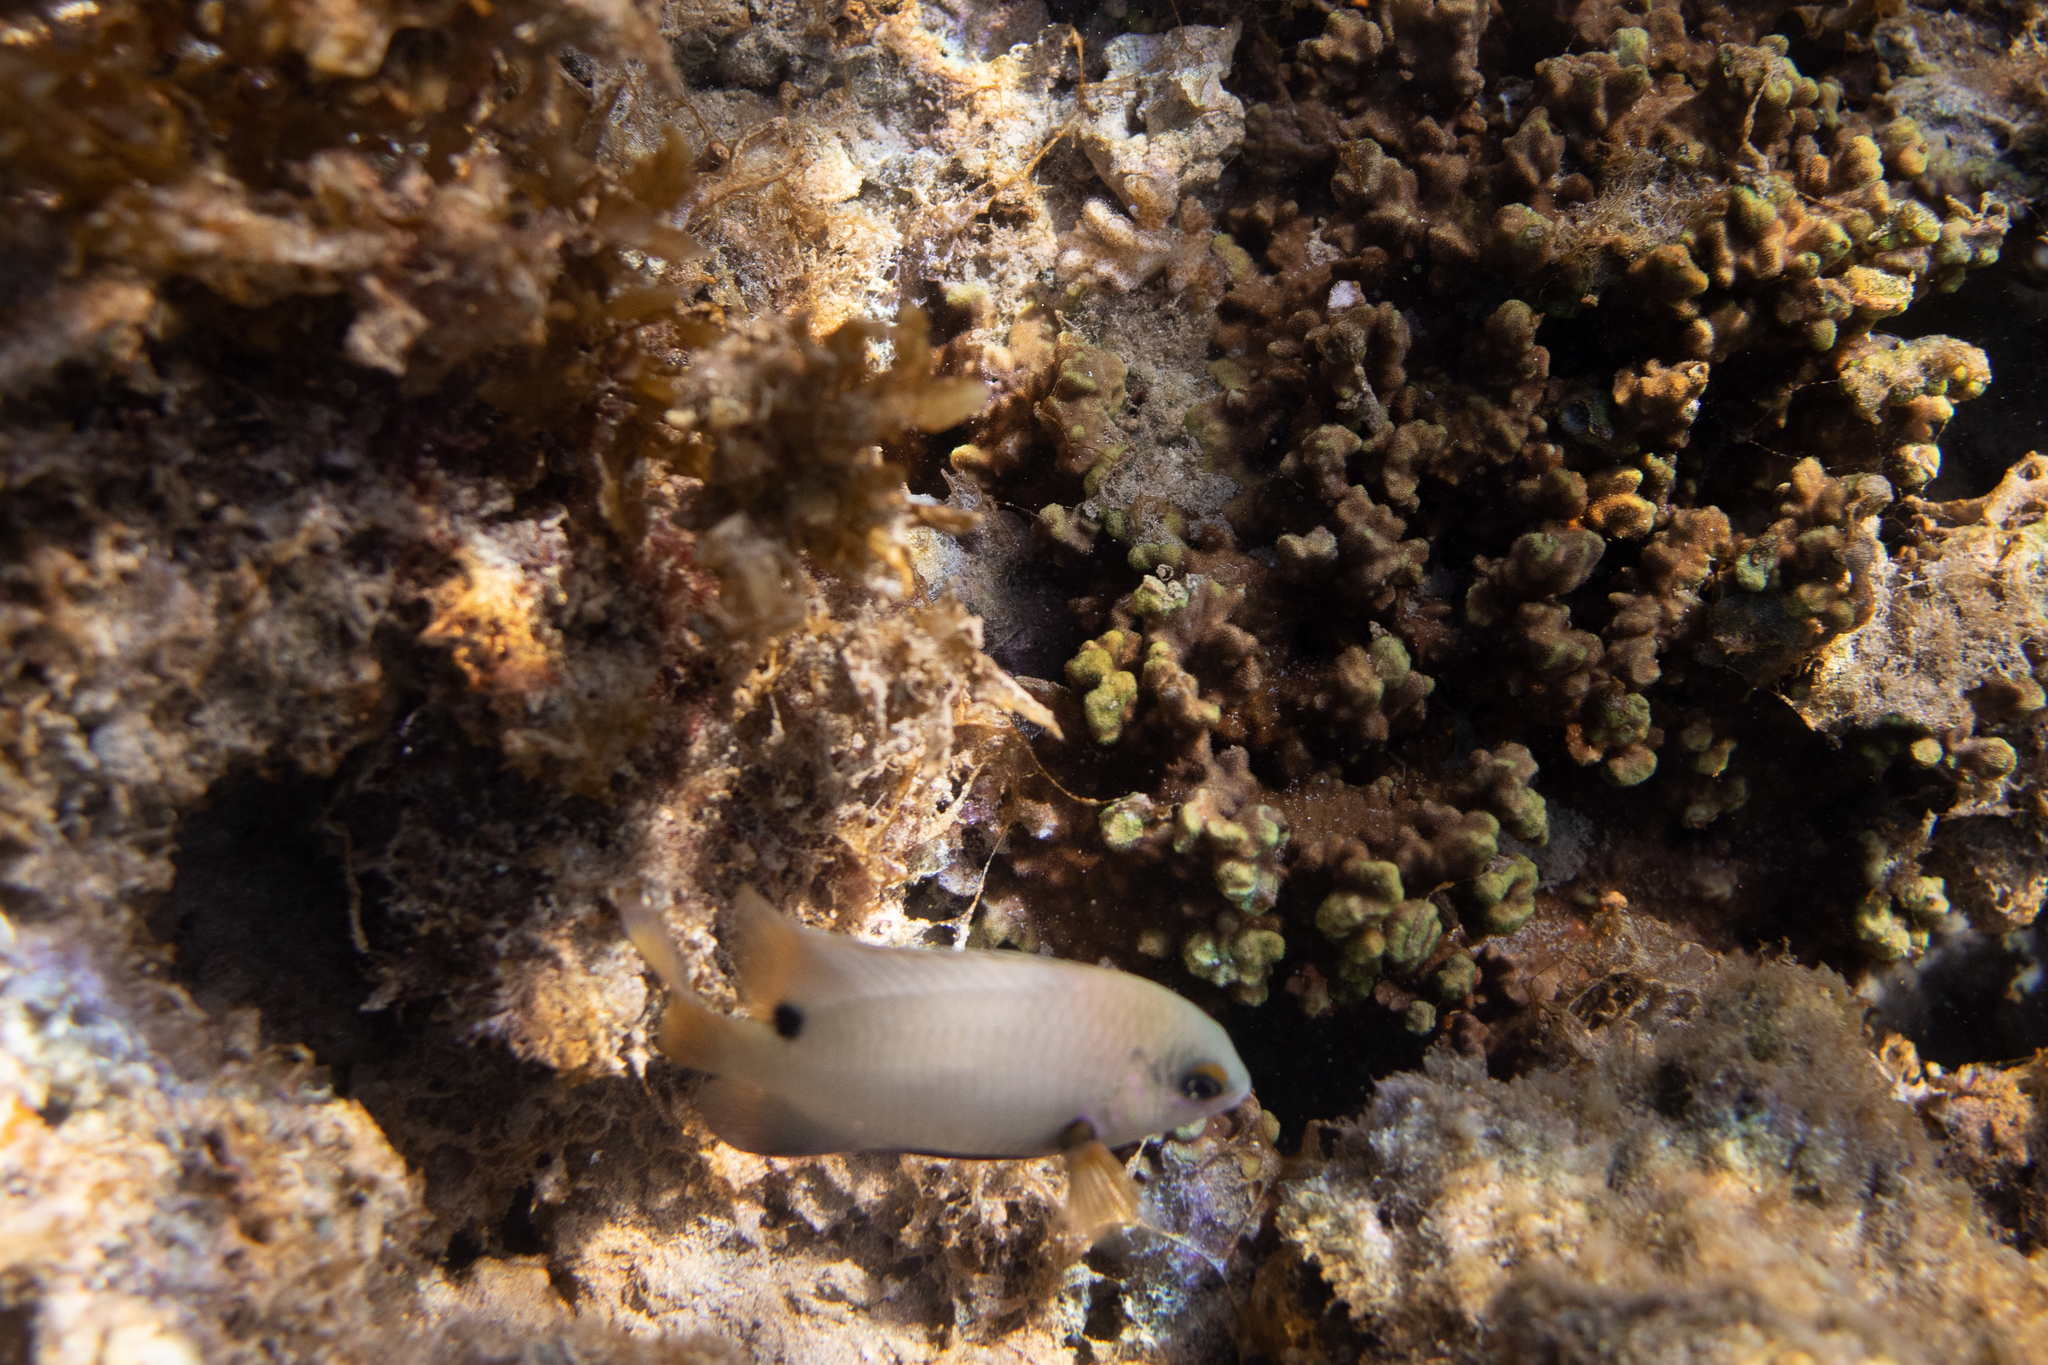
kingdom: Animalia
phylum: Chordata
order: Perciformes
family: Pomacentridae
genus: Stegastes
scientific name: Stegastes nigricans
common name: Dusky gregory
